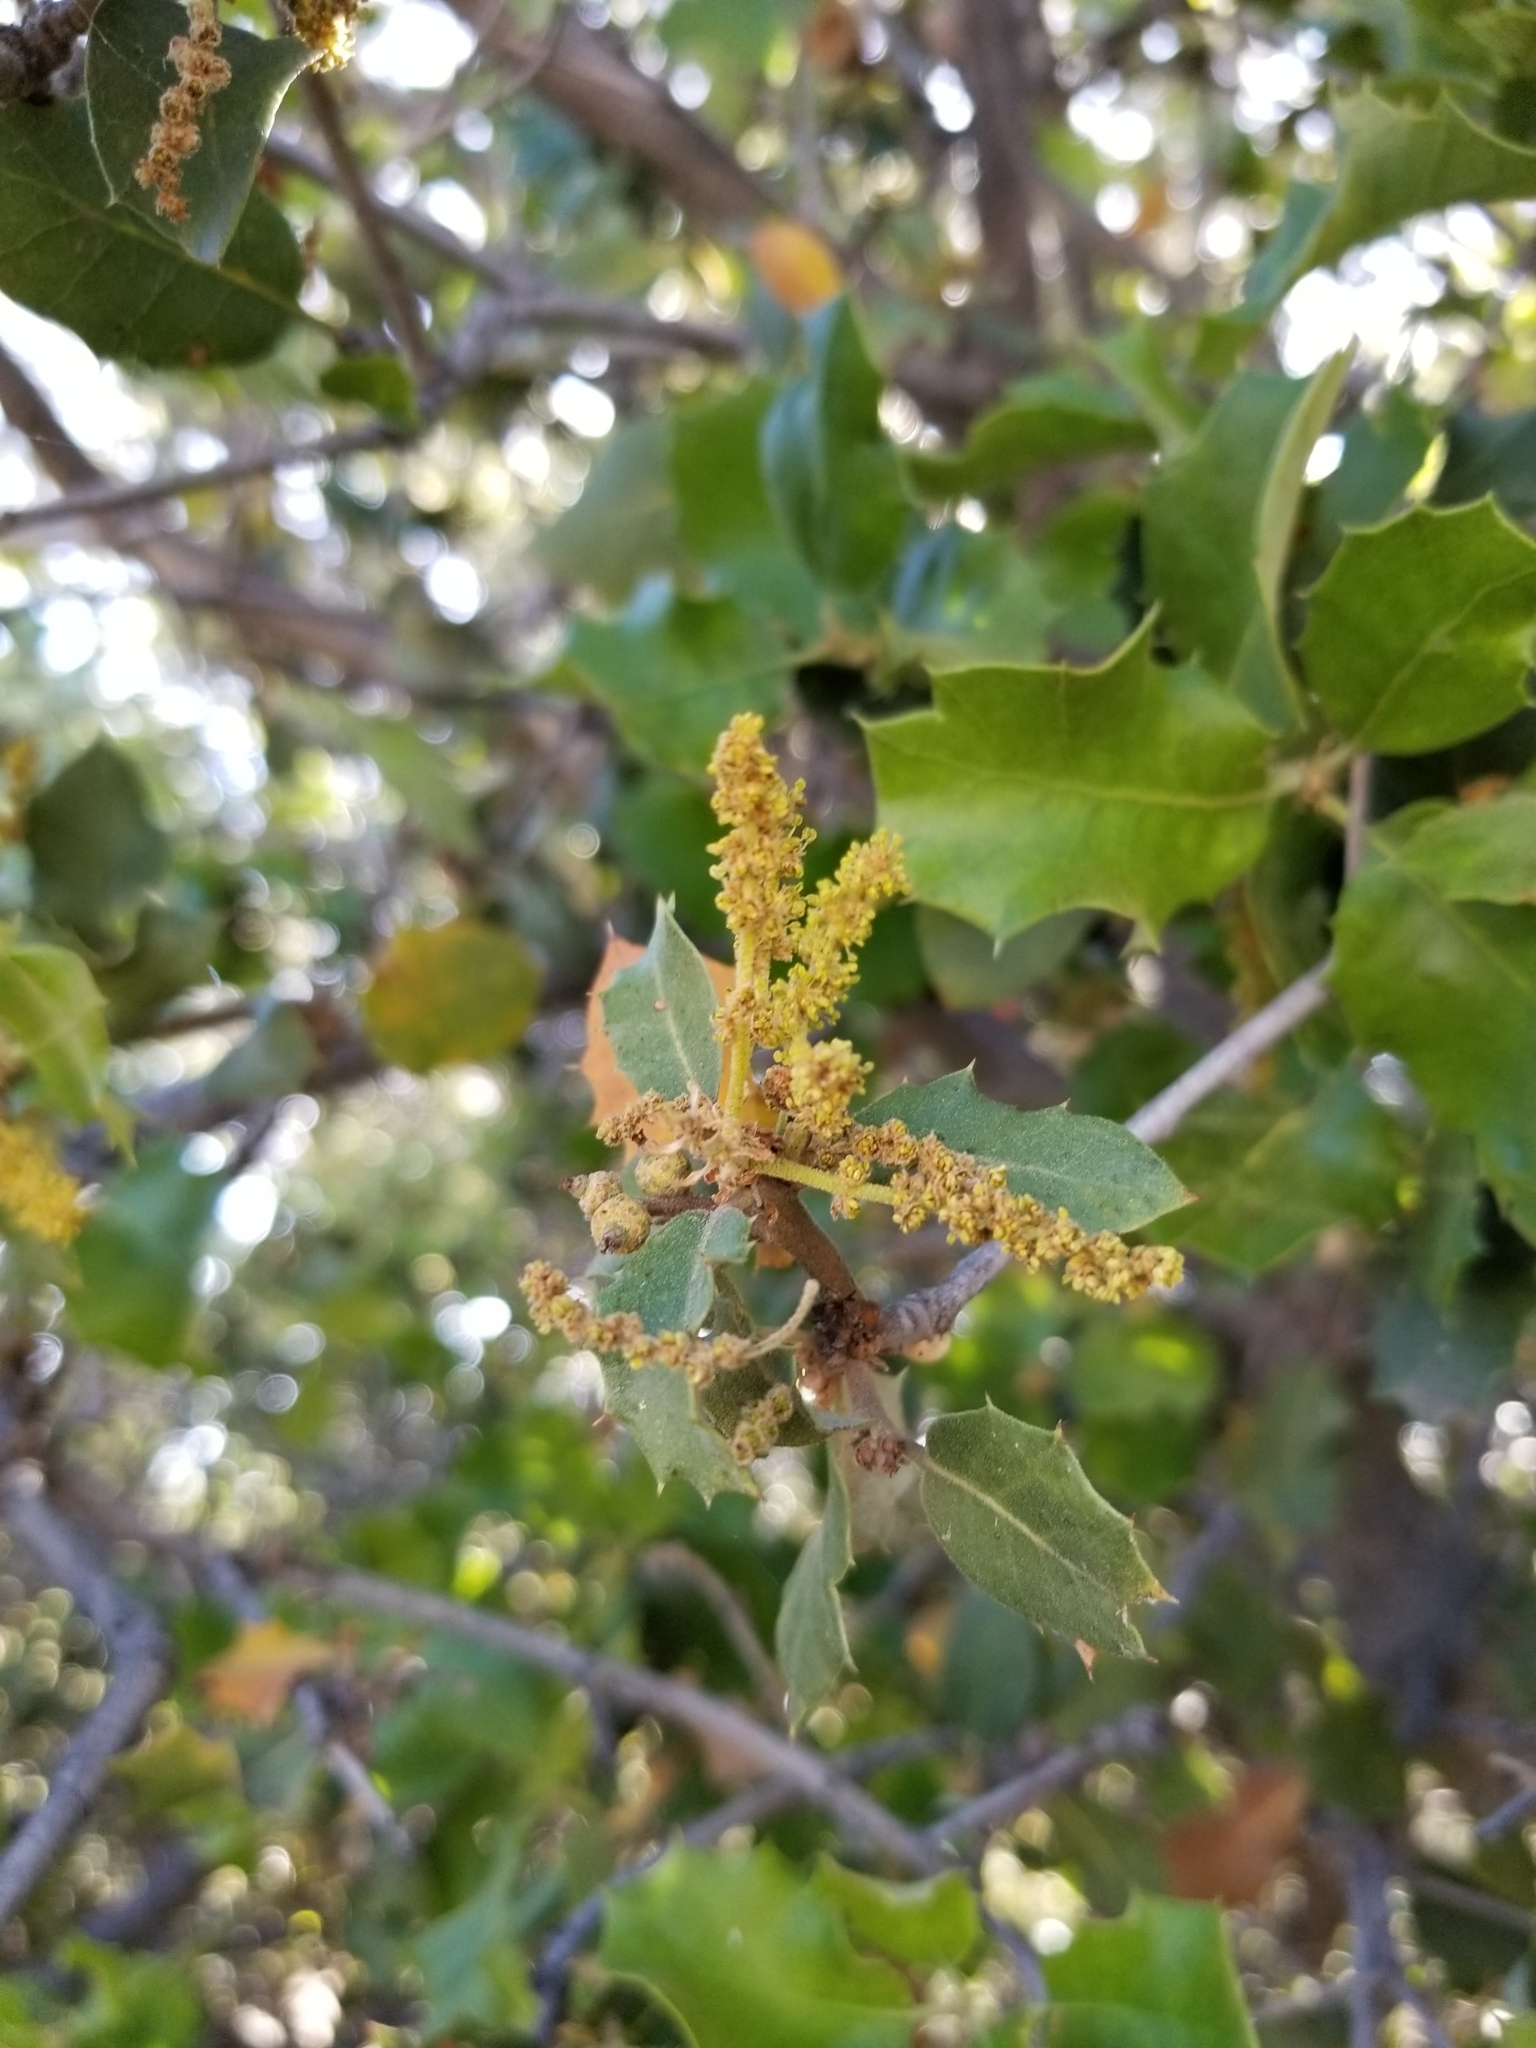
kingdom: Plantae
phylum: Tracheophyta
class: Magnoliopsida
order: Fagales
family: Fagaceae
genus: Quercus
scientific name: Quercus palmeri
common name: Dunn oak
